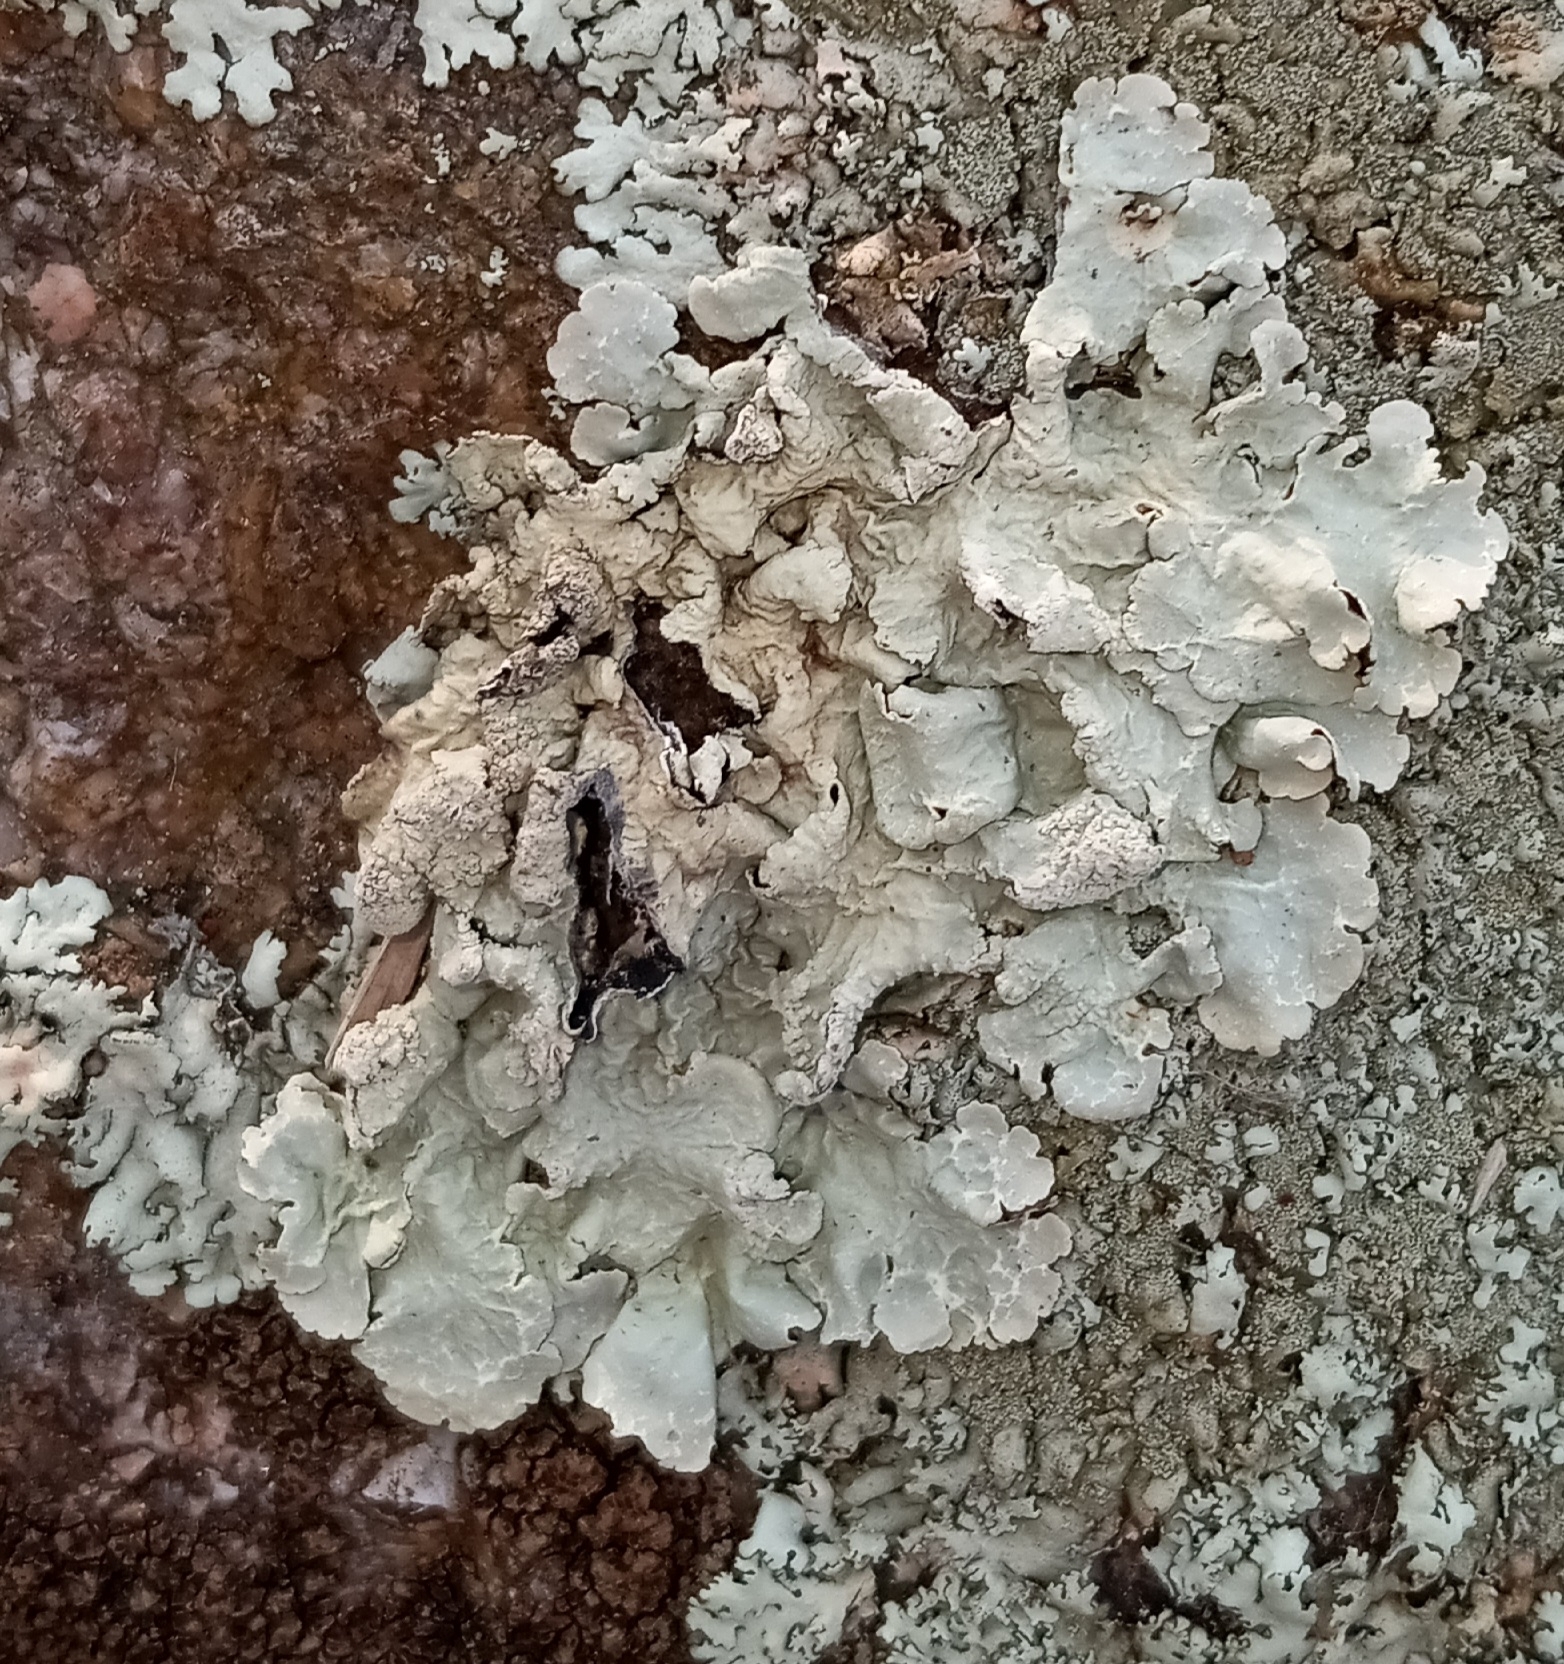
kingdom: Fungi
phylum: Ascomycota
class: Lecanoromycetes
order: Lecanorales
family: Parmeliaceae
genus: Flavoparmelia
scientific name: Flavoparmelia caperata
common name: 40-mile per hour lichen
